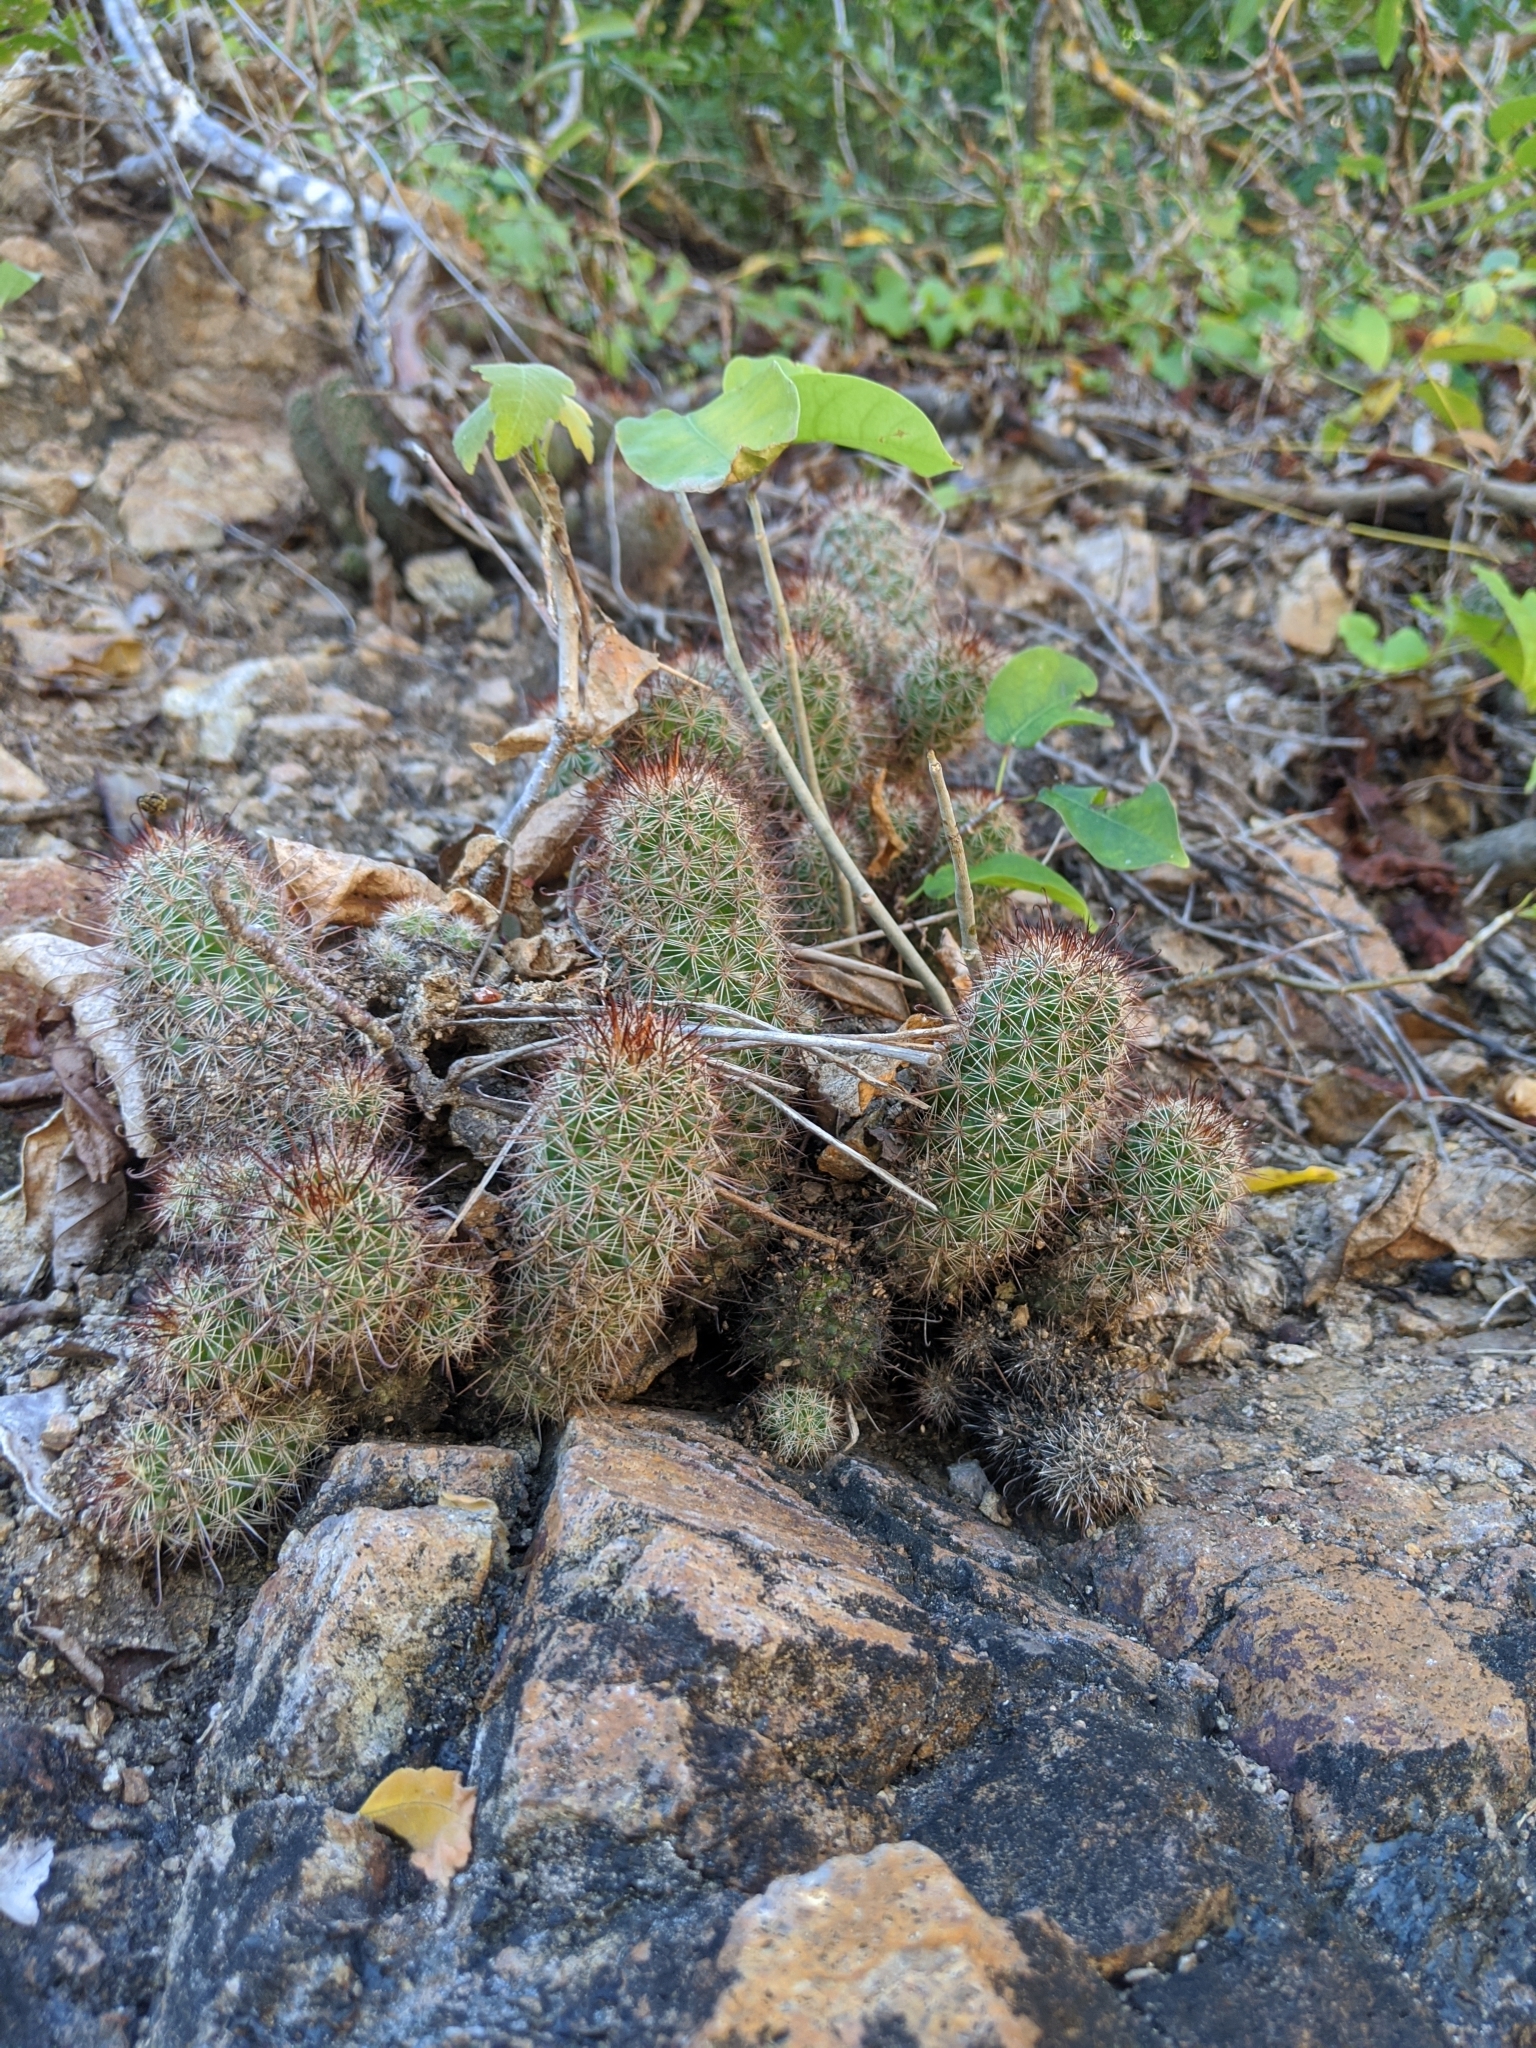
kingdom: Plantae
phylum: Tracheophyta
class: Magnoliopsida
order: Caryophyllales
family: Cactaceae
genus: Cochemiea
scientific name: Cochemiea mazatlanensis
